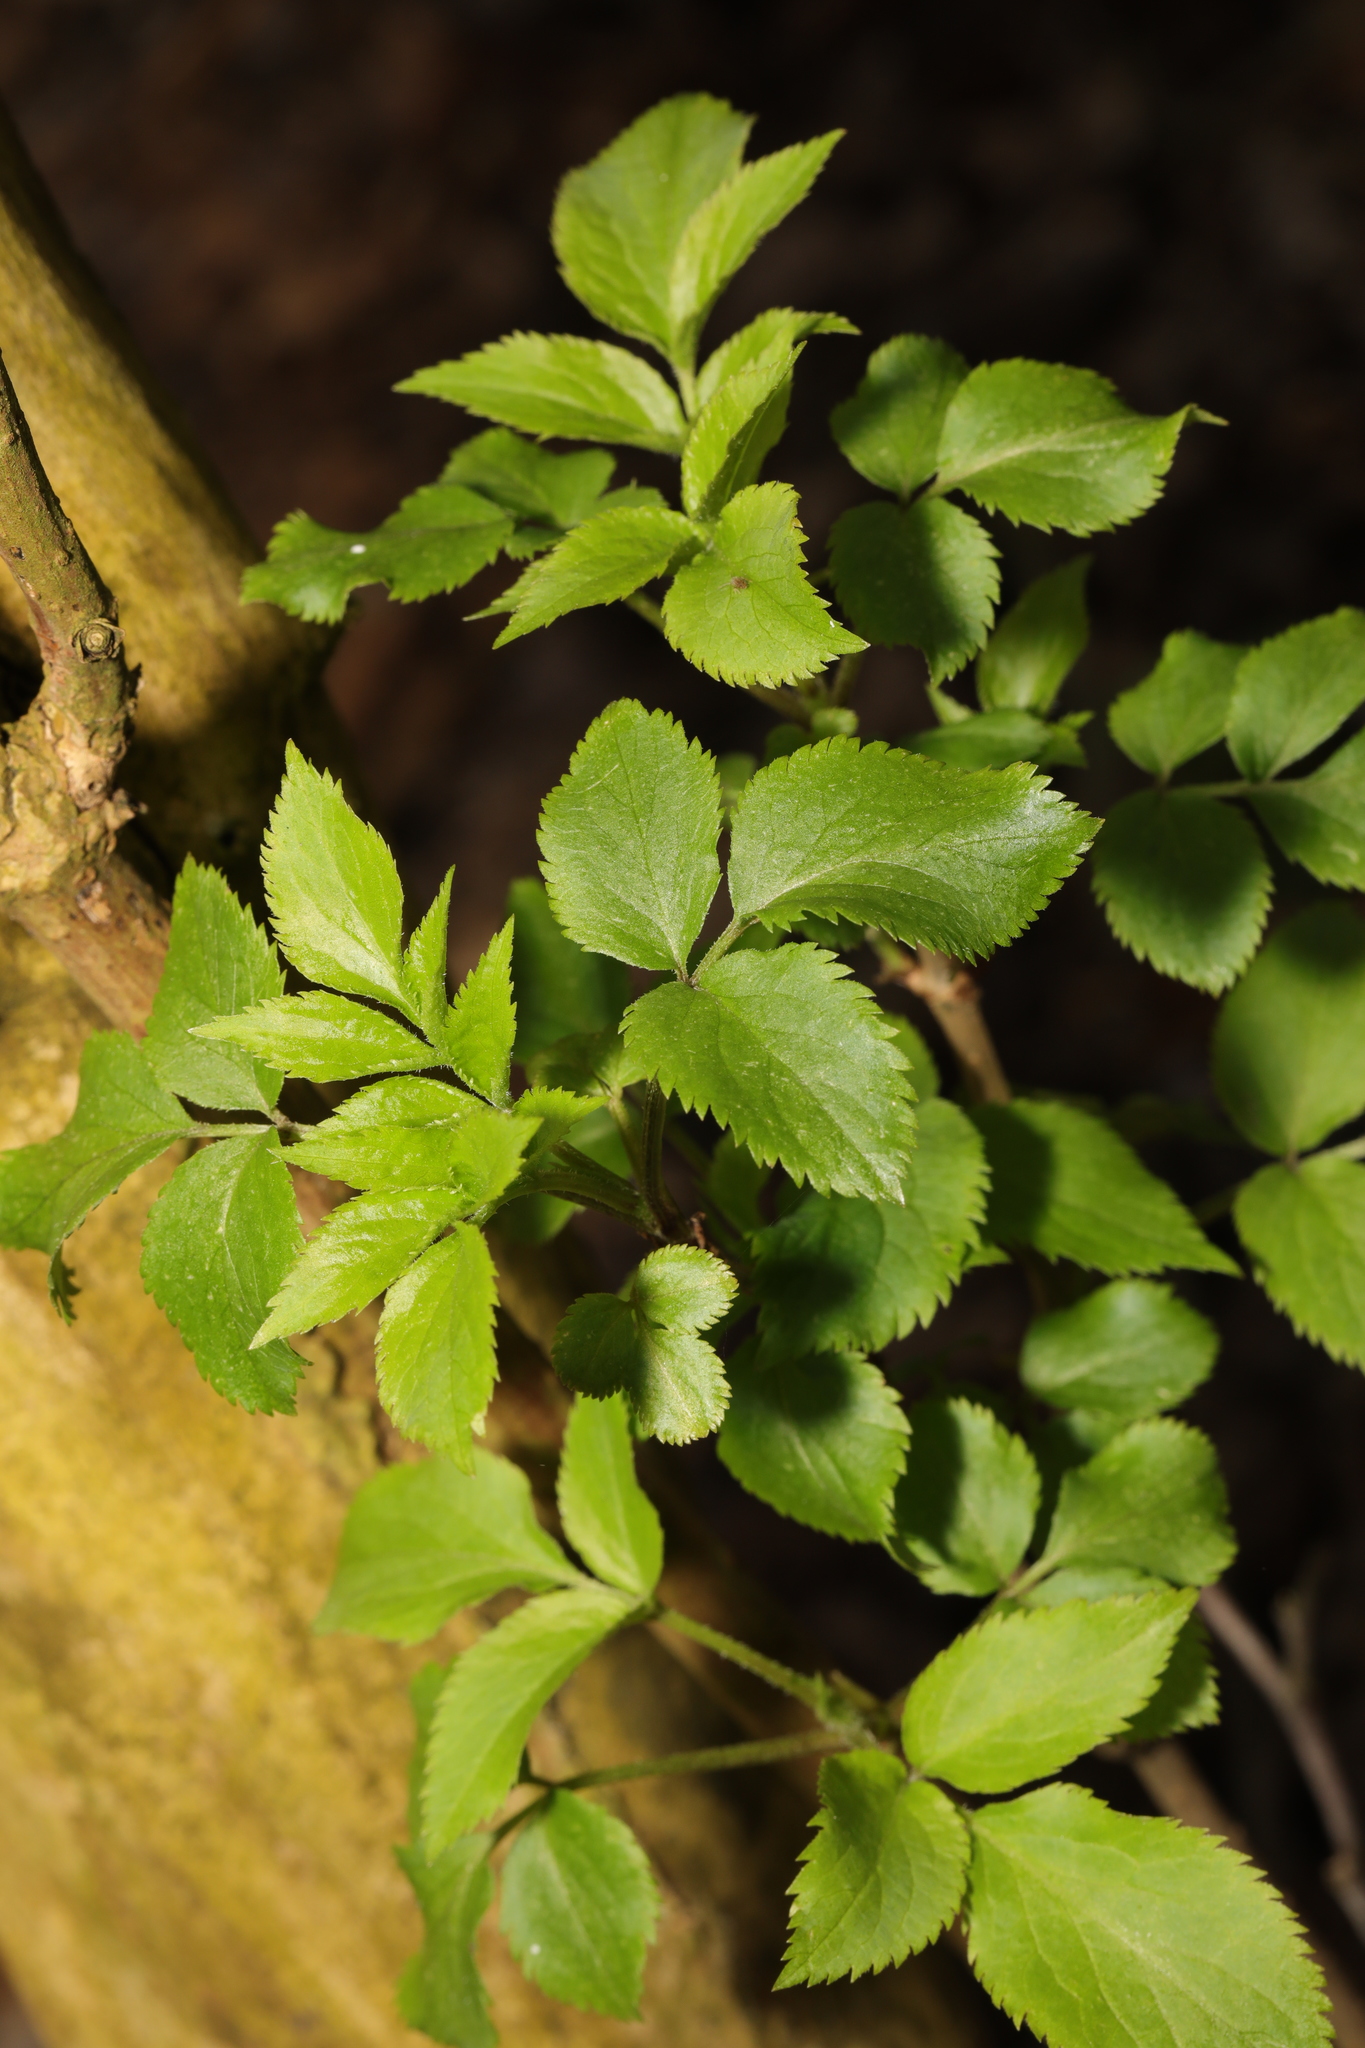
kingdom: Plantae
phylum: Tracheophyta
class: Magnoliopsida
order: Dipsacales
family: Viburnaceae
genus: Sambucus
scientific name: Sambucus nigra
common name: Elder
